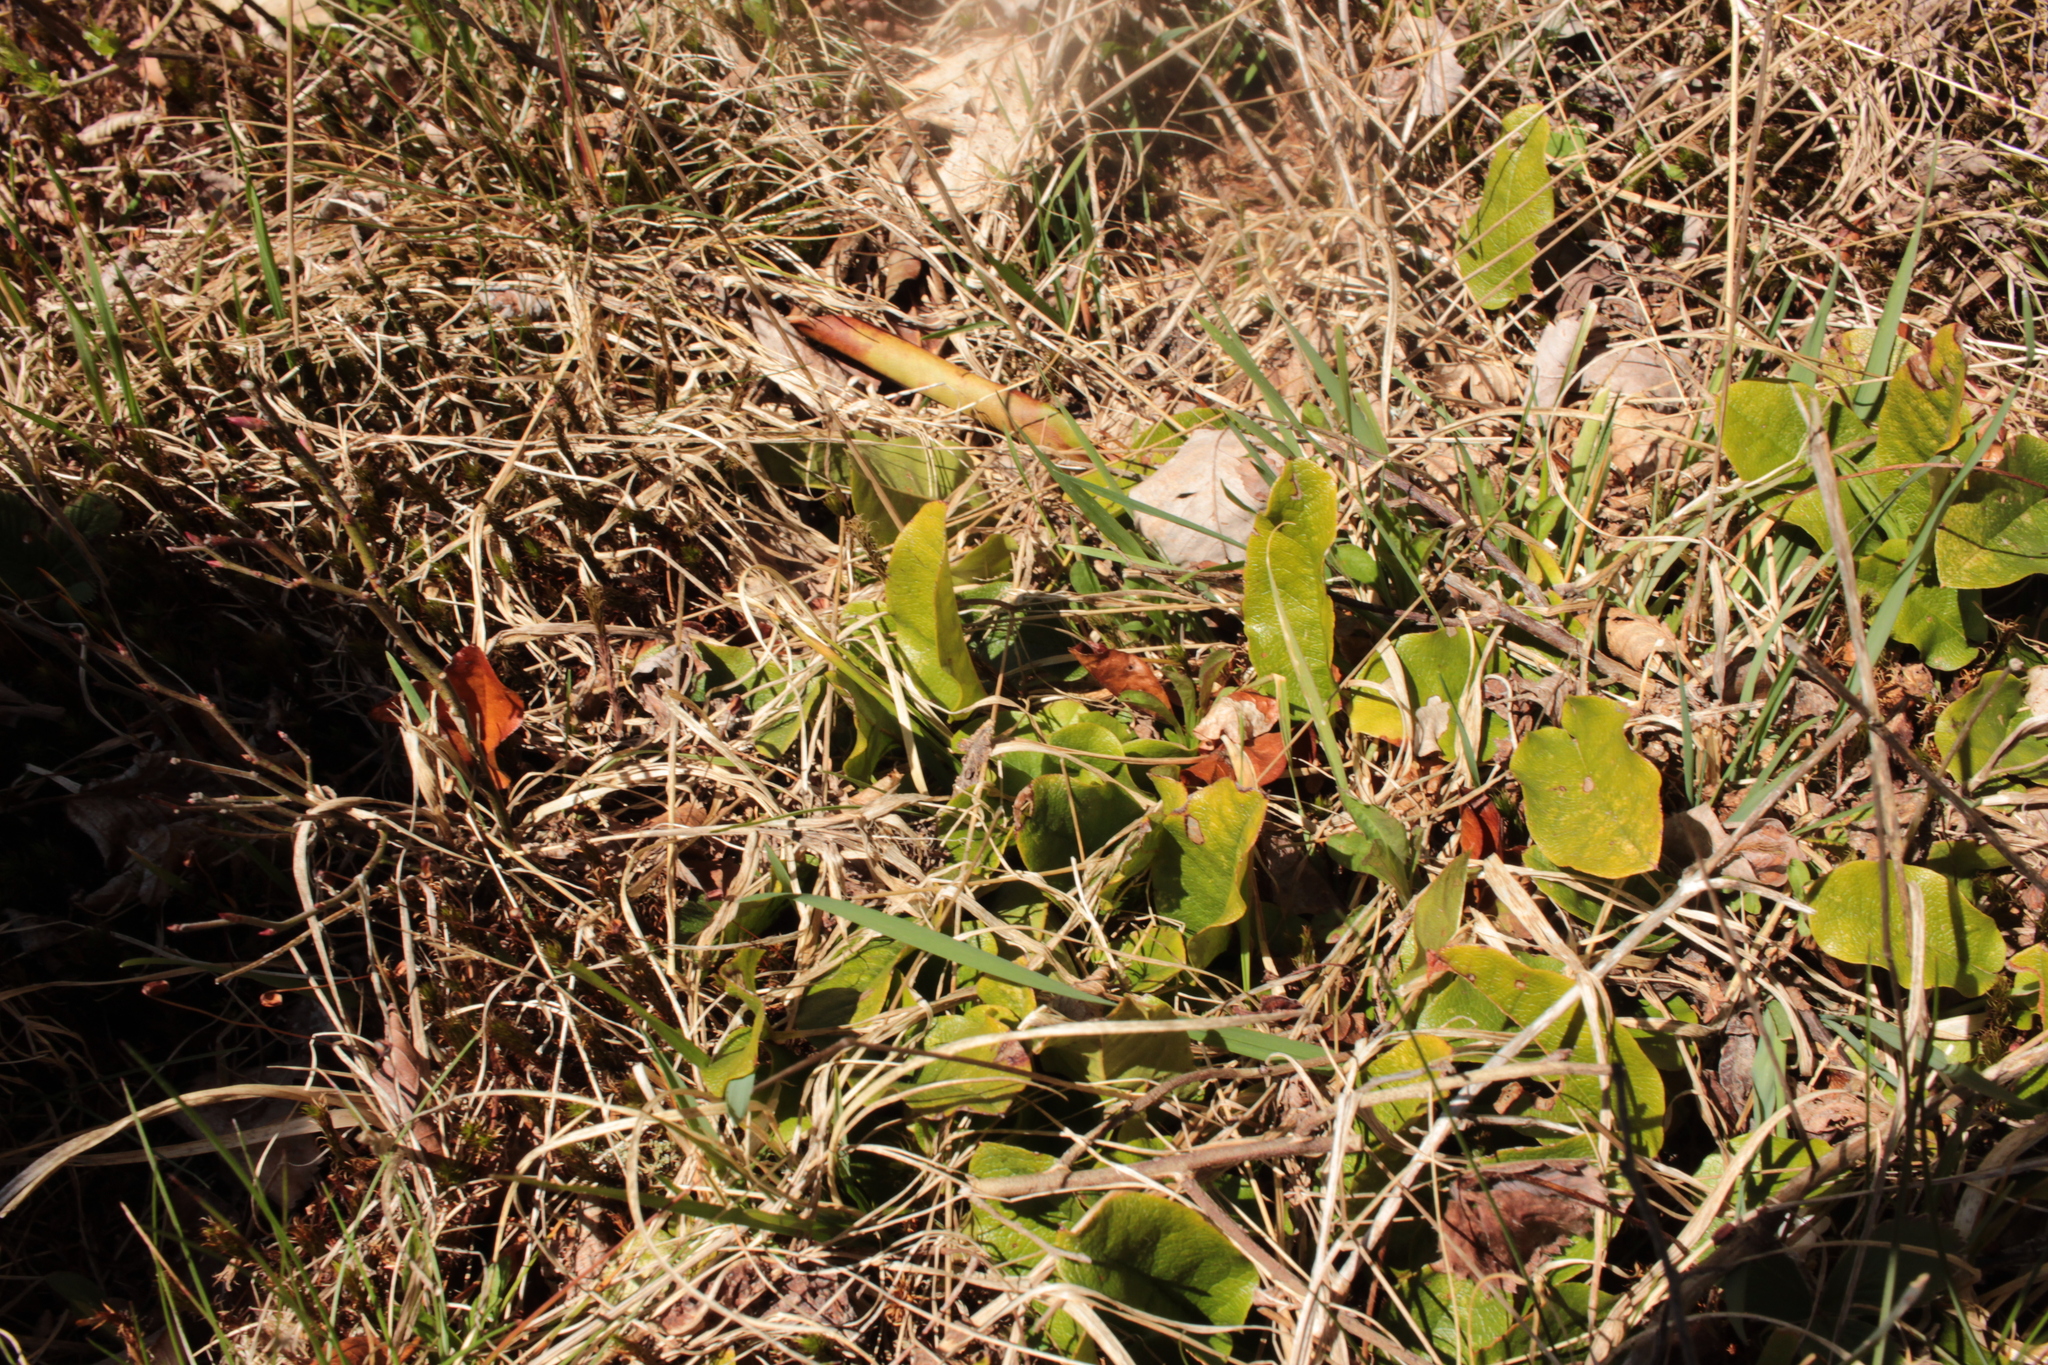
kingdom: Plantae
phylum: Tracheophyta
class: Magnoliopsida
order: Ericales
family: Ericaceae
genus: Epigaea
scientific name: Epigaea repens
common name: Gravelroot
